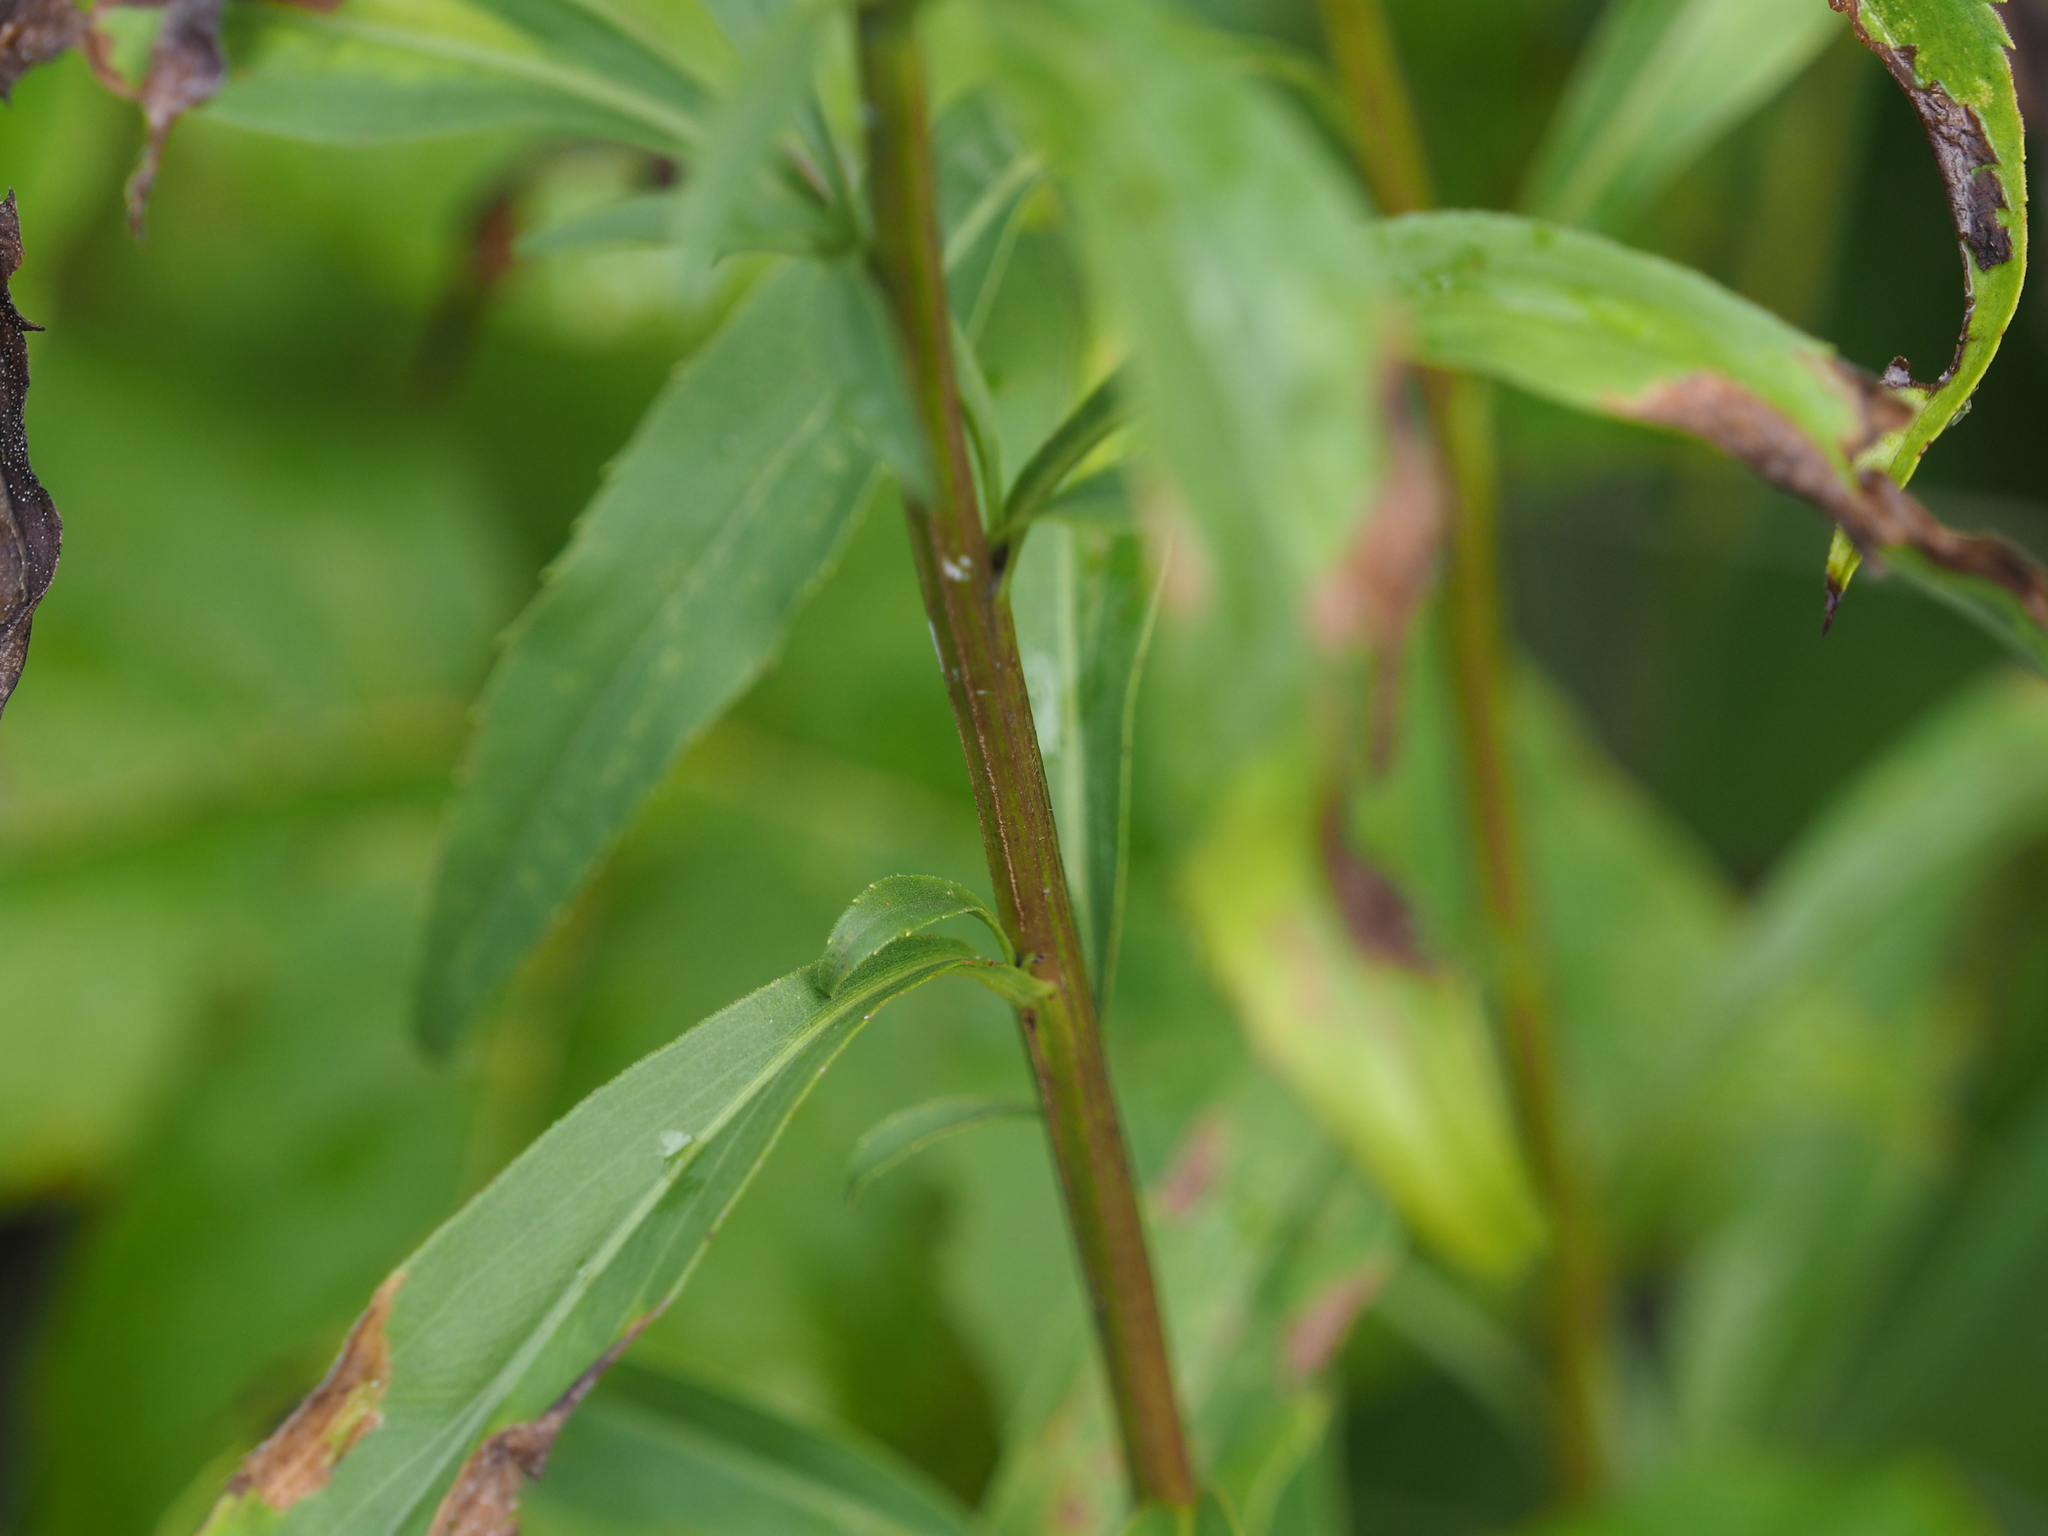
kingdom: Plantae
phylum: Tracheophyta
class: Magnoliopsida
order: Asterales
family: Asteraceae
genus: Solidago
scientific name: Solidago juncea
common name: Early goldenrod
